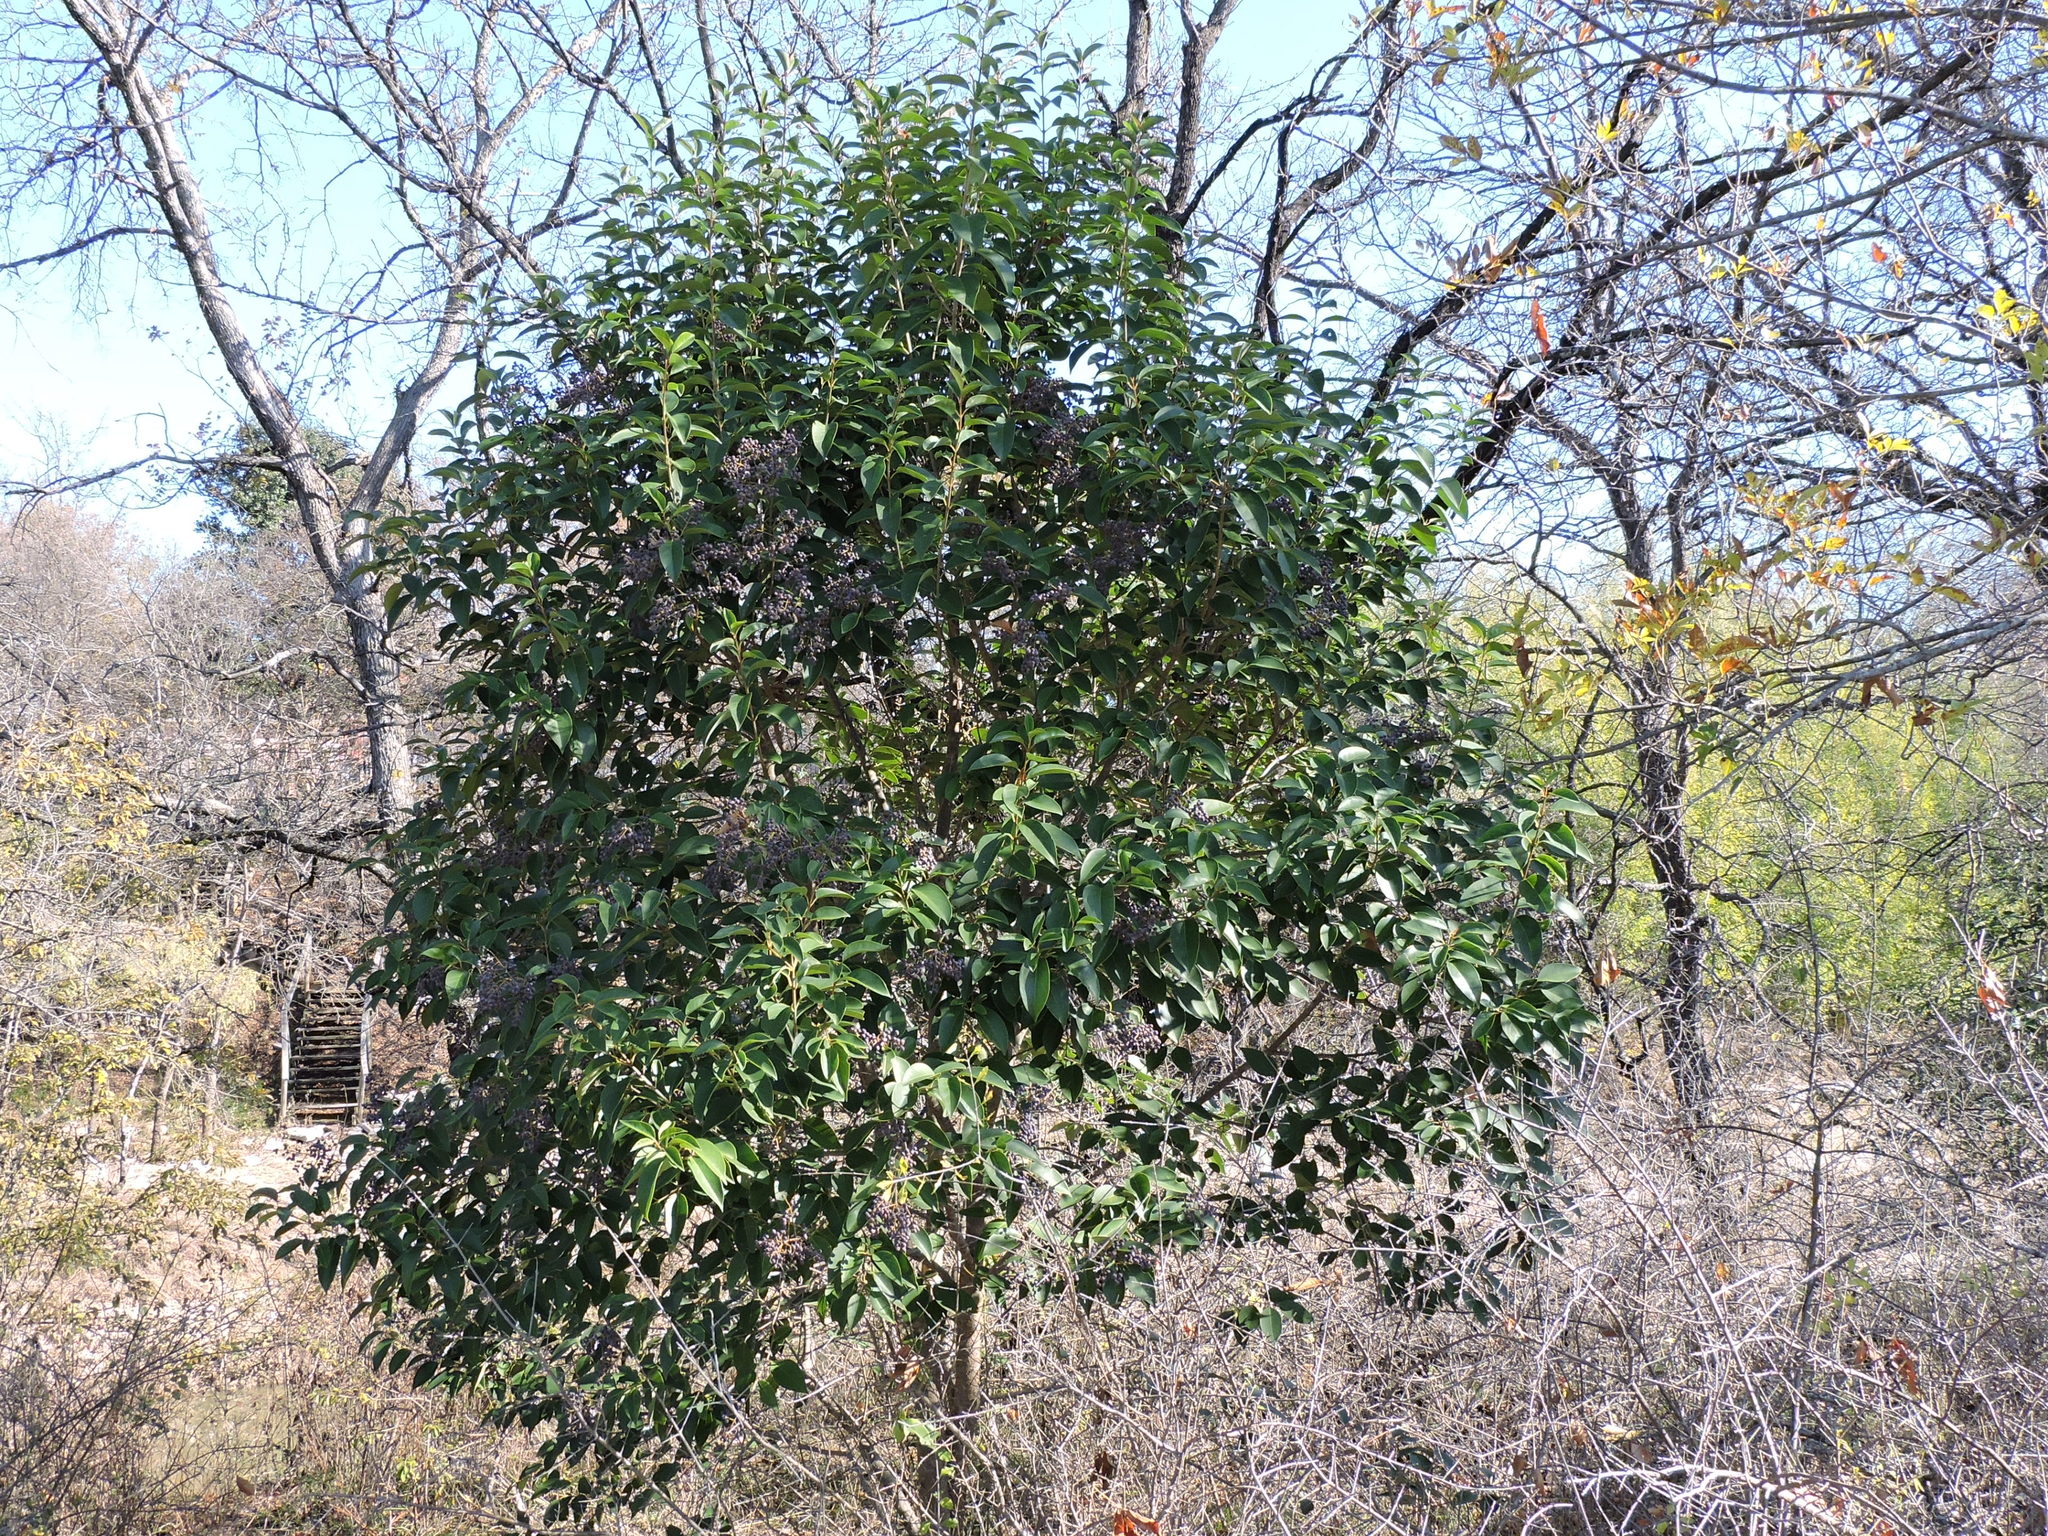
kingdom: Plantae
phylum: Tracheophyta
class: Magnoliopsida
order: Lamiales
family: Oleaceae
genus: Ligustrum
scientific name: Ligustrum lucidum
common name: Glossy privet
